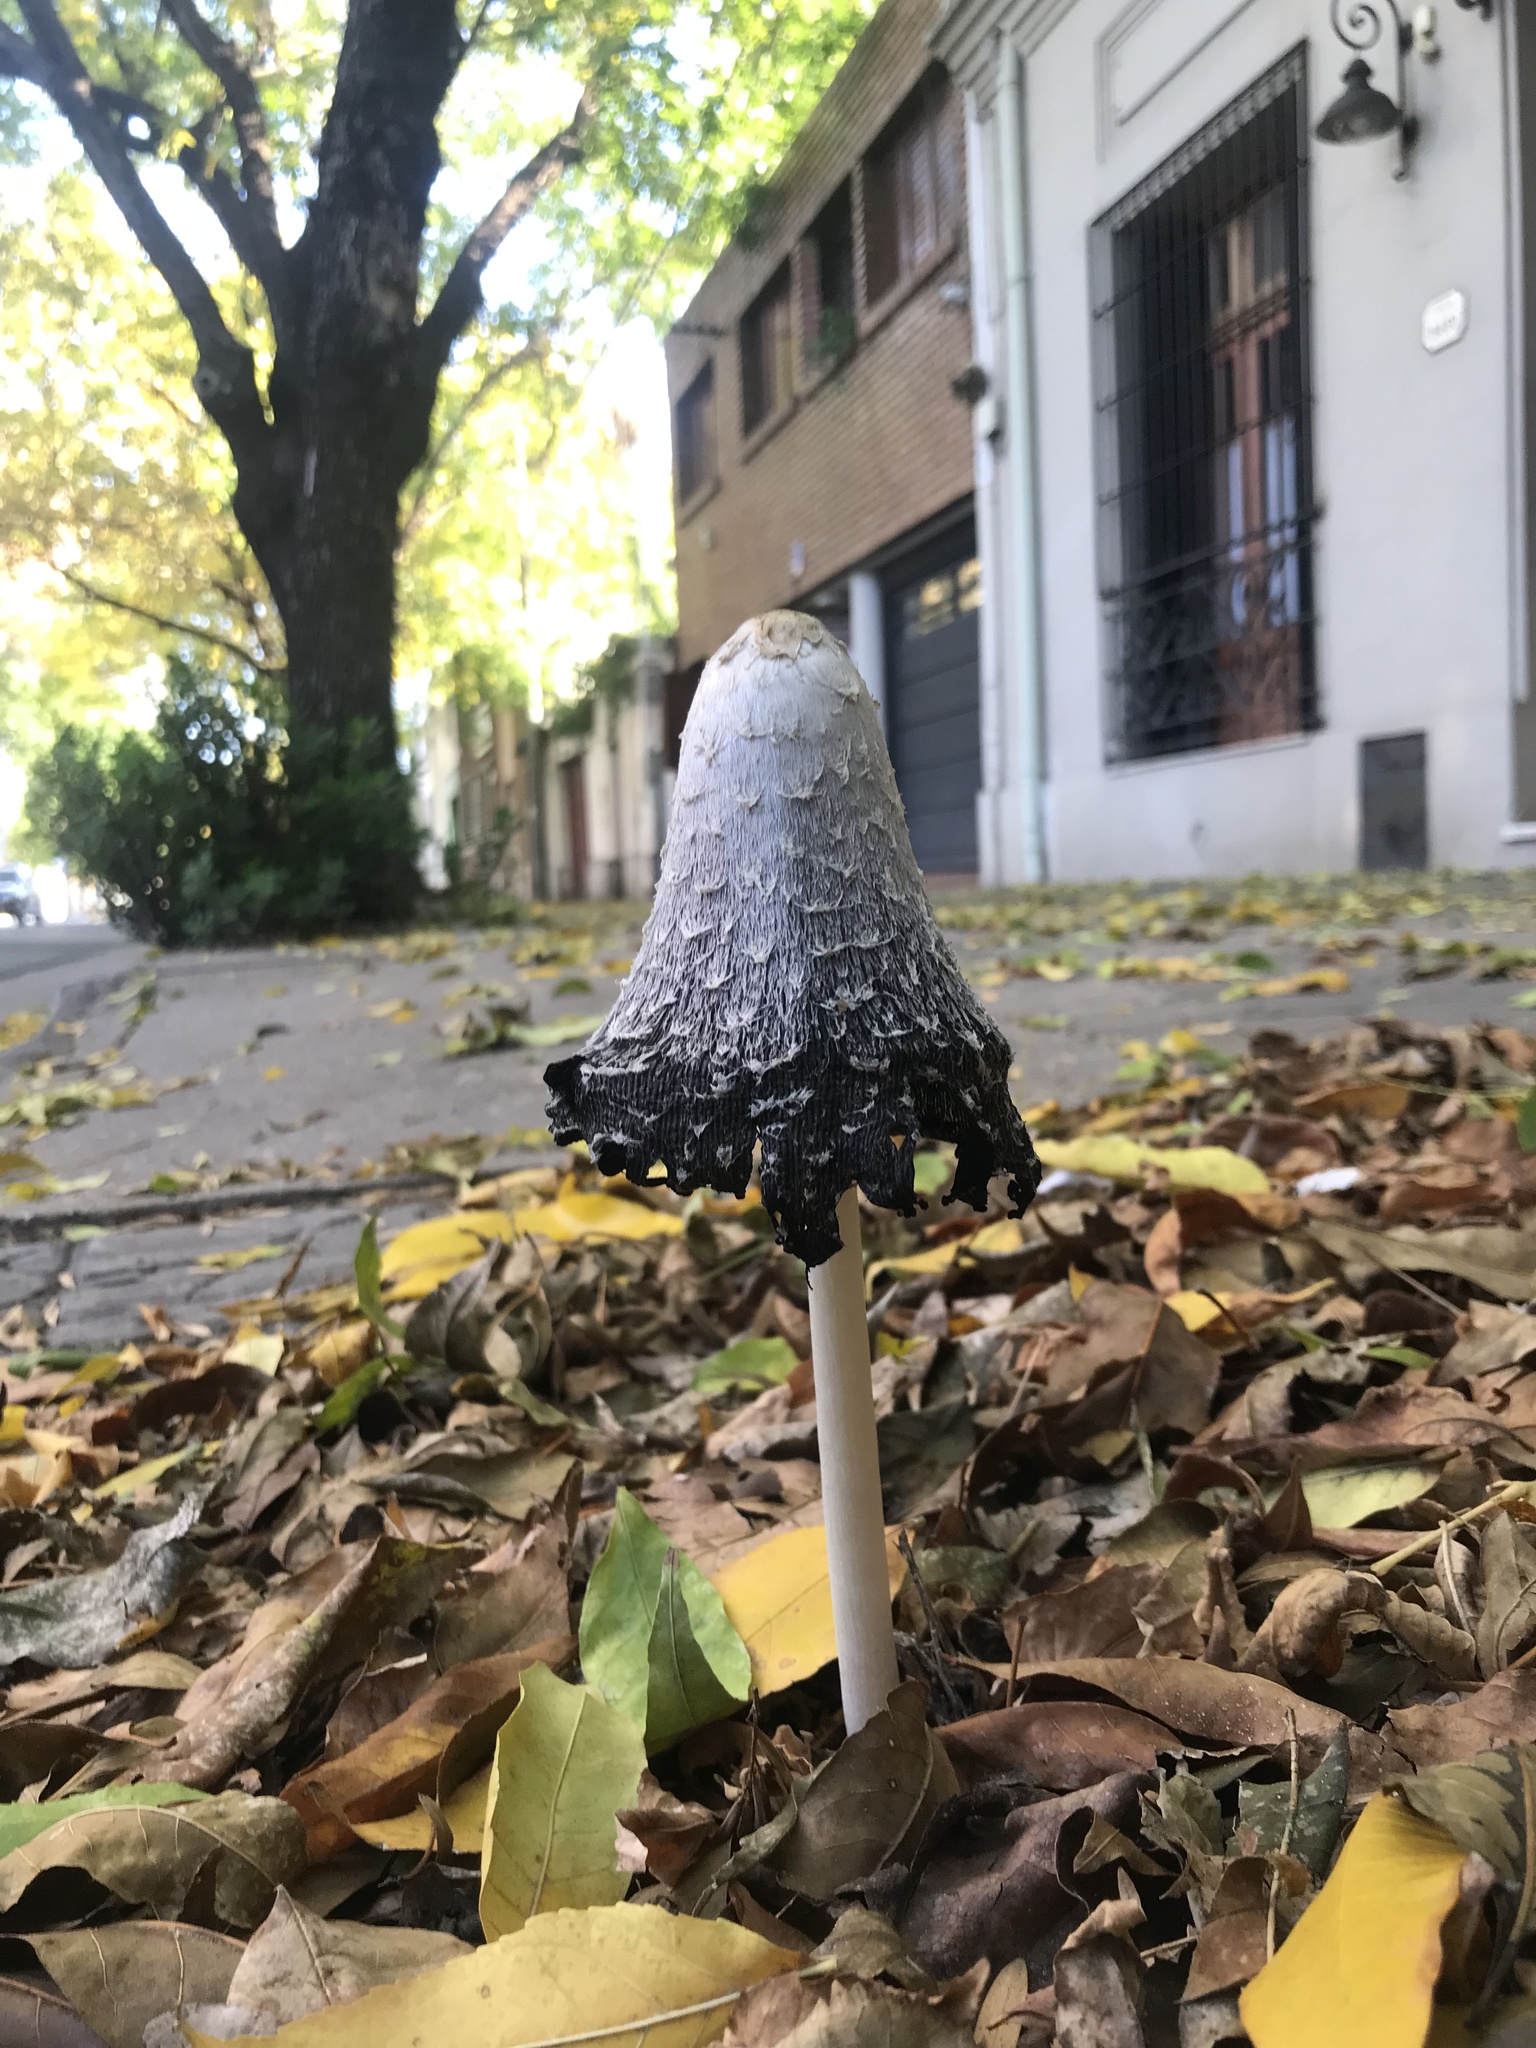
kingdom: Fungi
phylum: Basidiomycota
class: Agaricomycetes
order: Agaricales
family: Agaricaceae
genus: Coprinus
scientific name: Coprinus comatus
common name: Lawyer's wig
